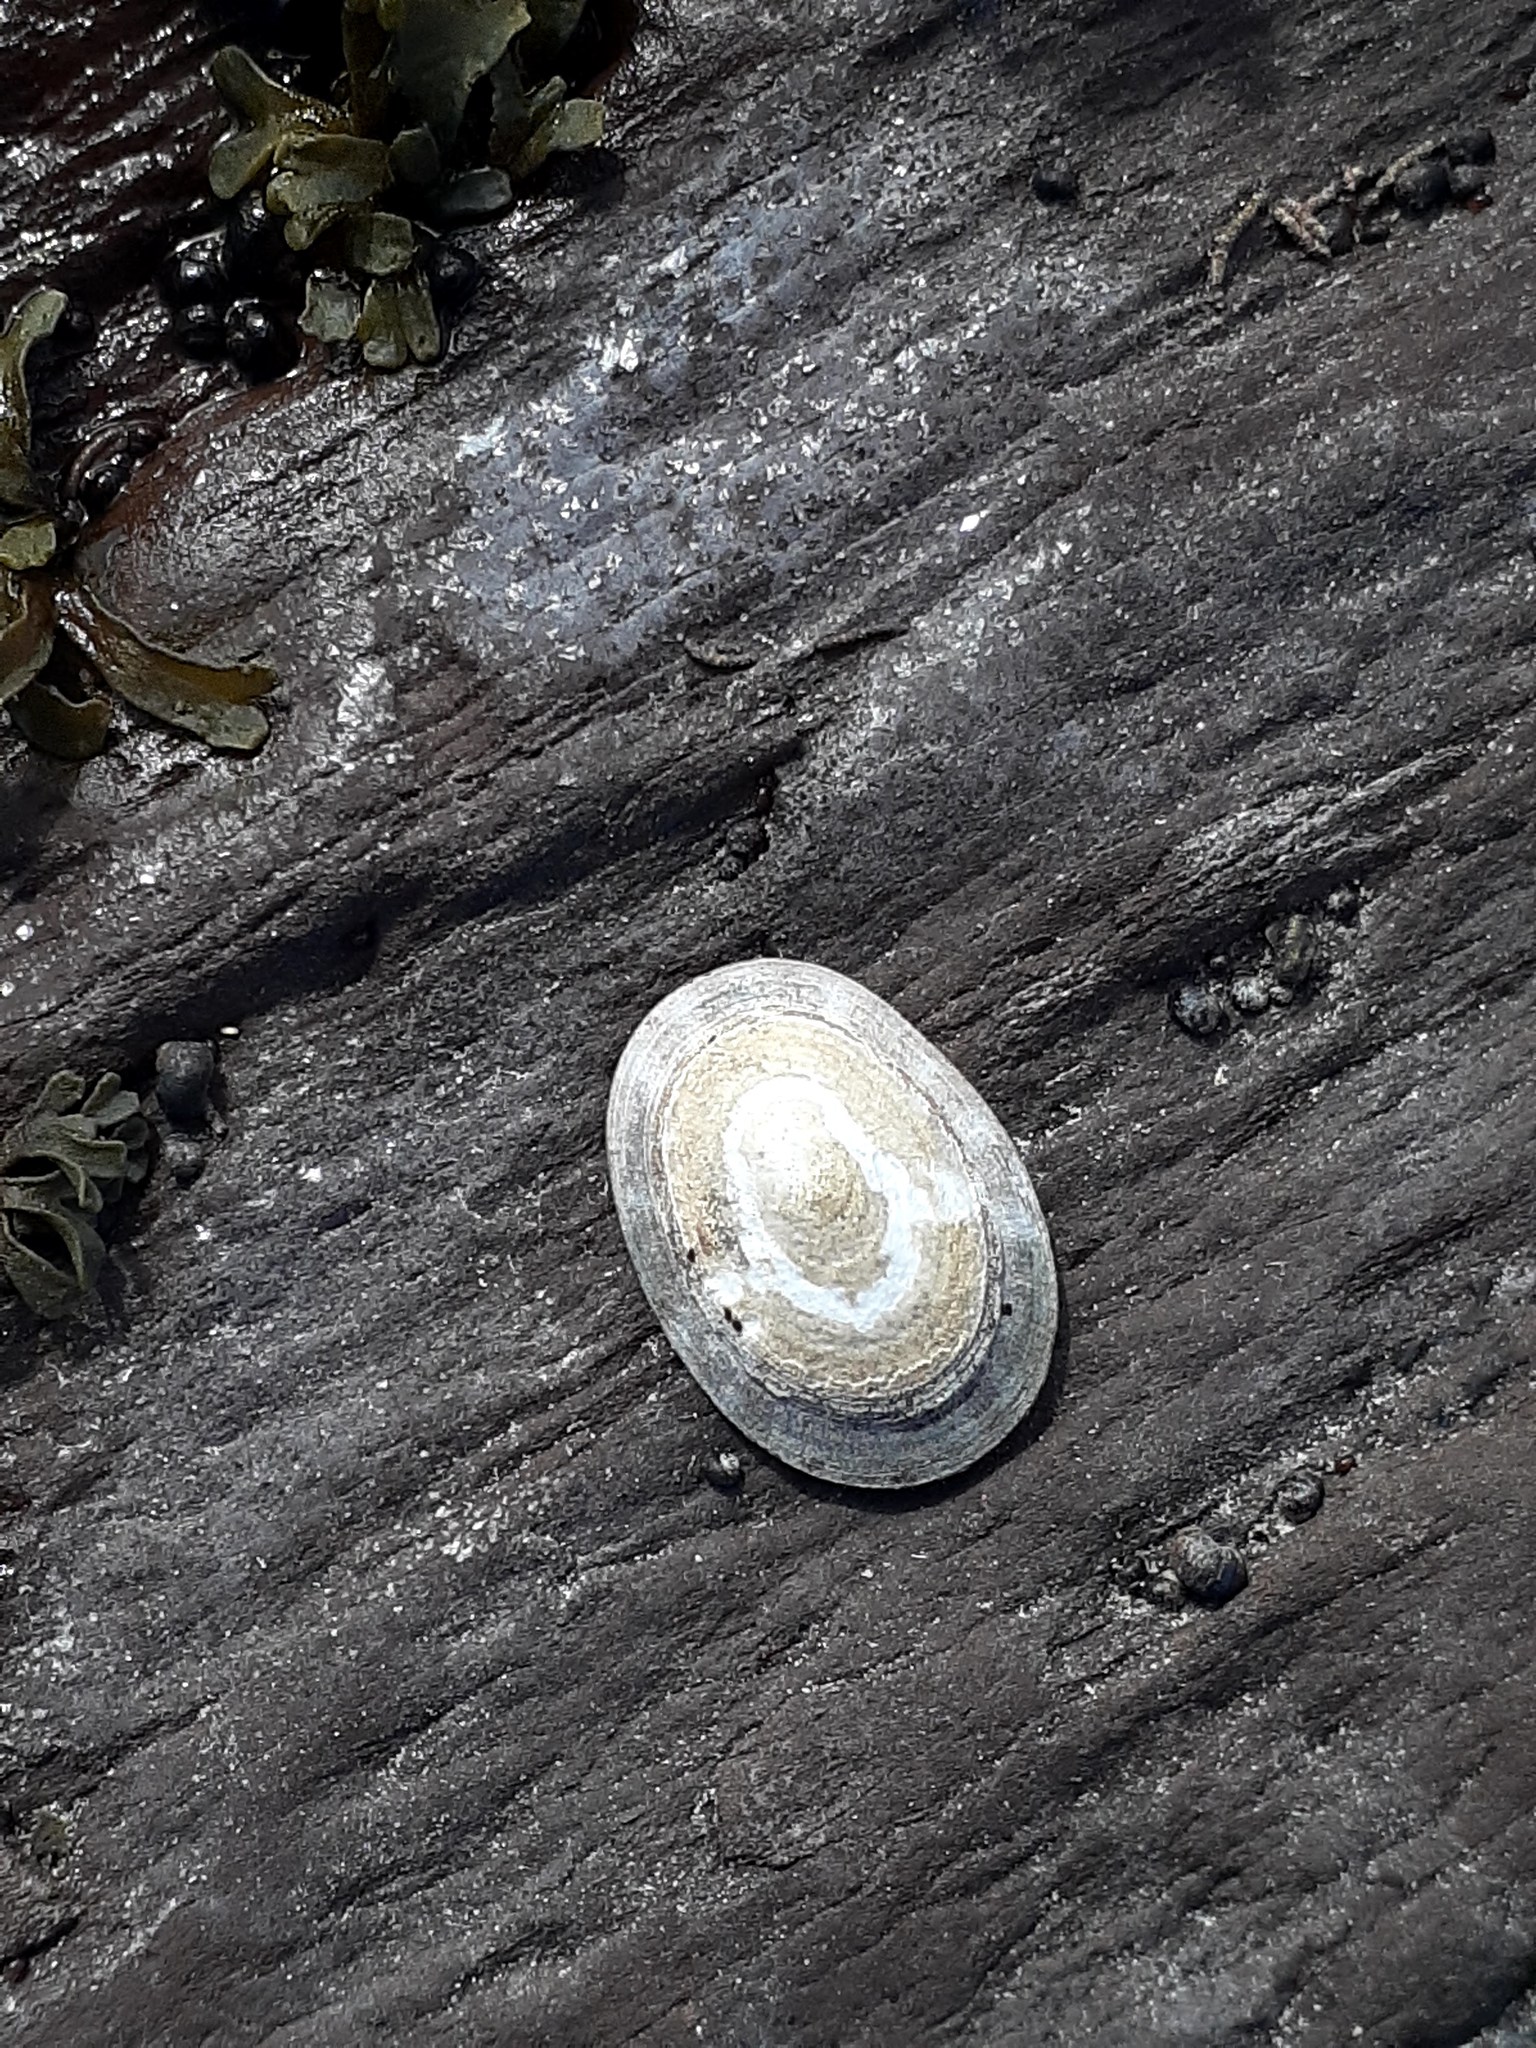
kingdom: Animalia
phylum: Mollusca
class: Gastropoda
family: Lottiidae
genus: Testudinalia
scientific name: Testudinalia testudinalis
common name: Common tortoiseshell limpet
